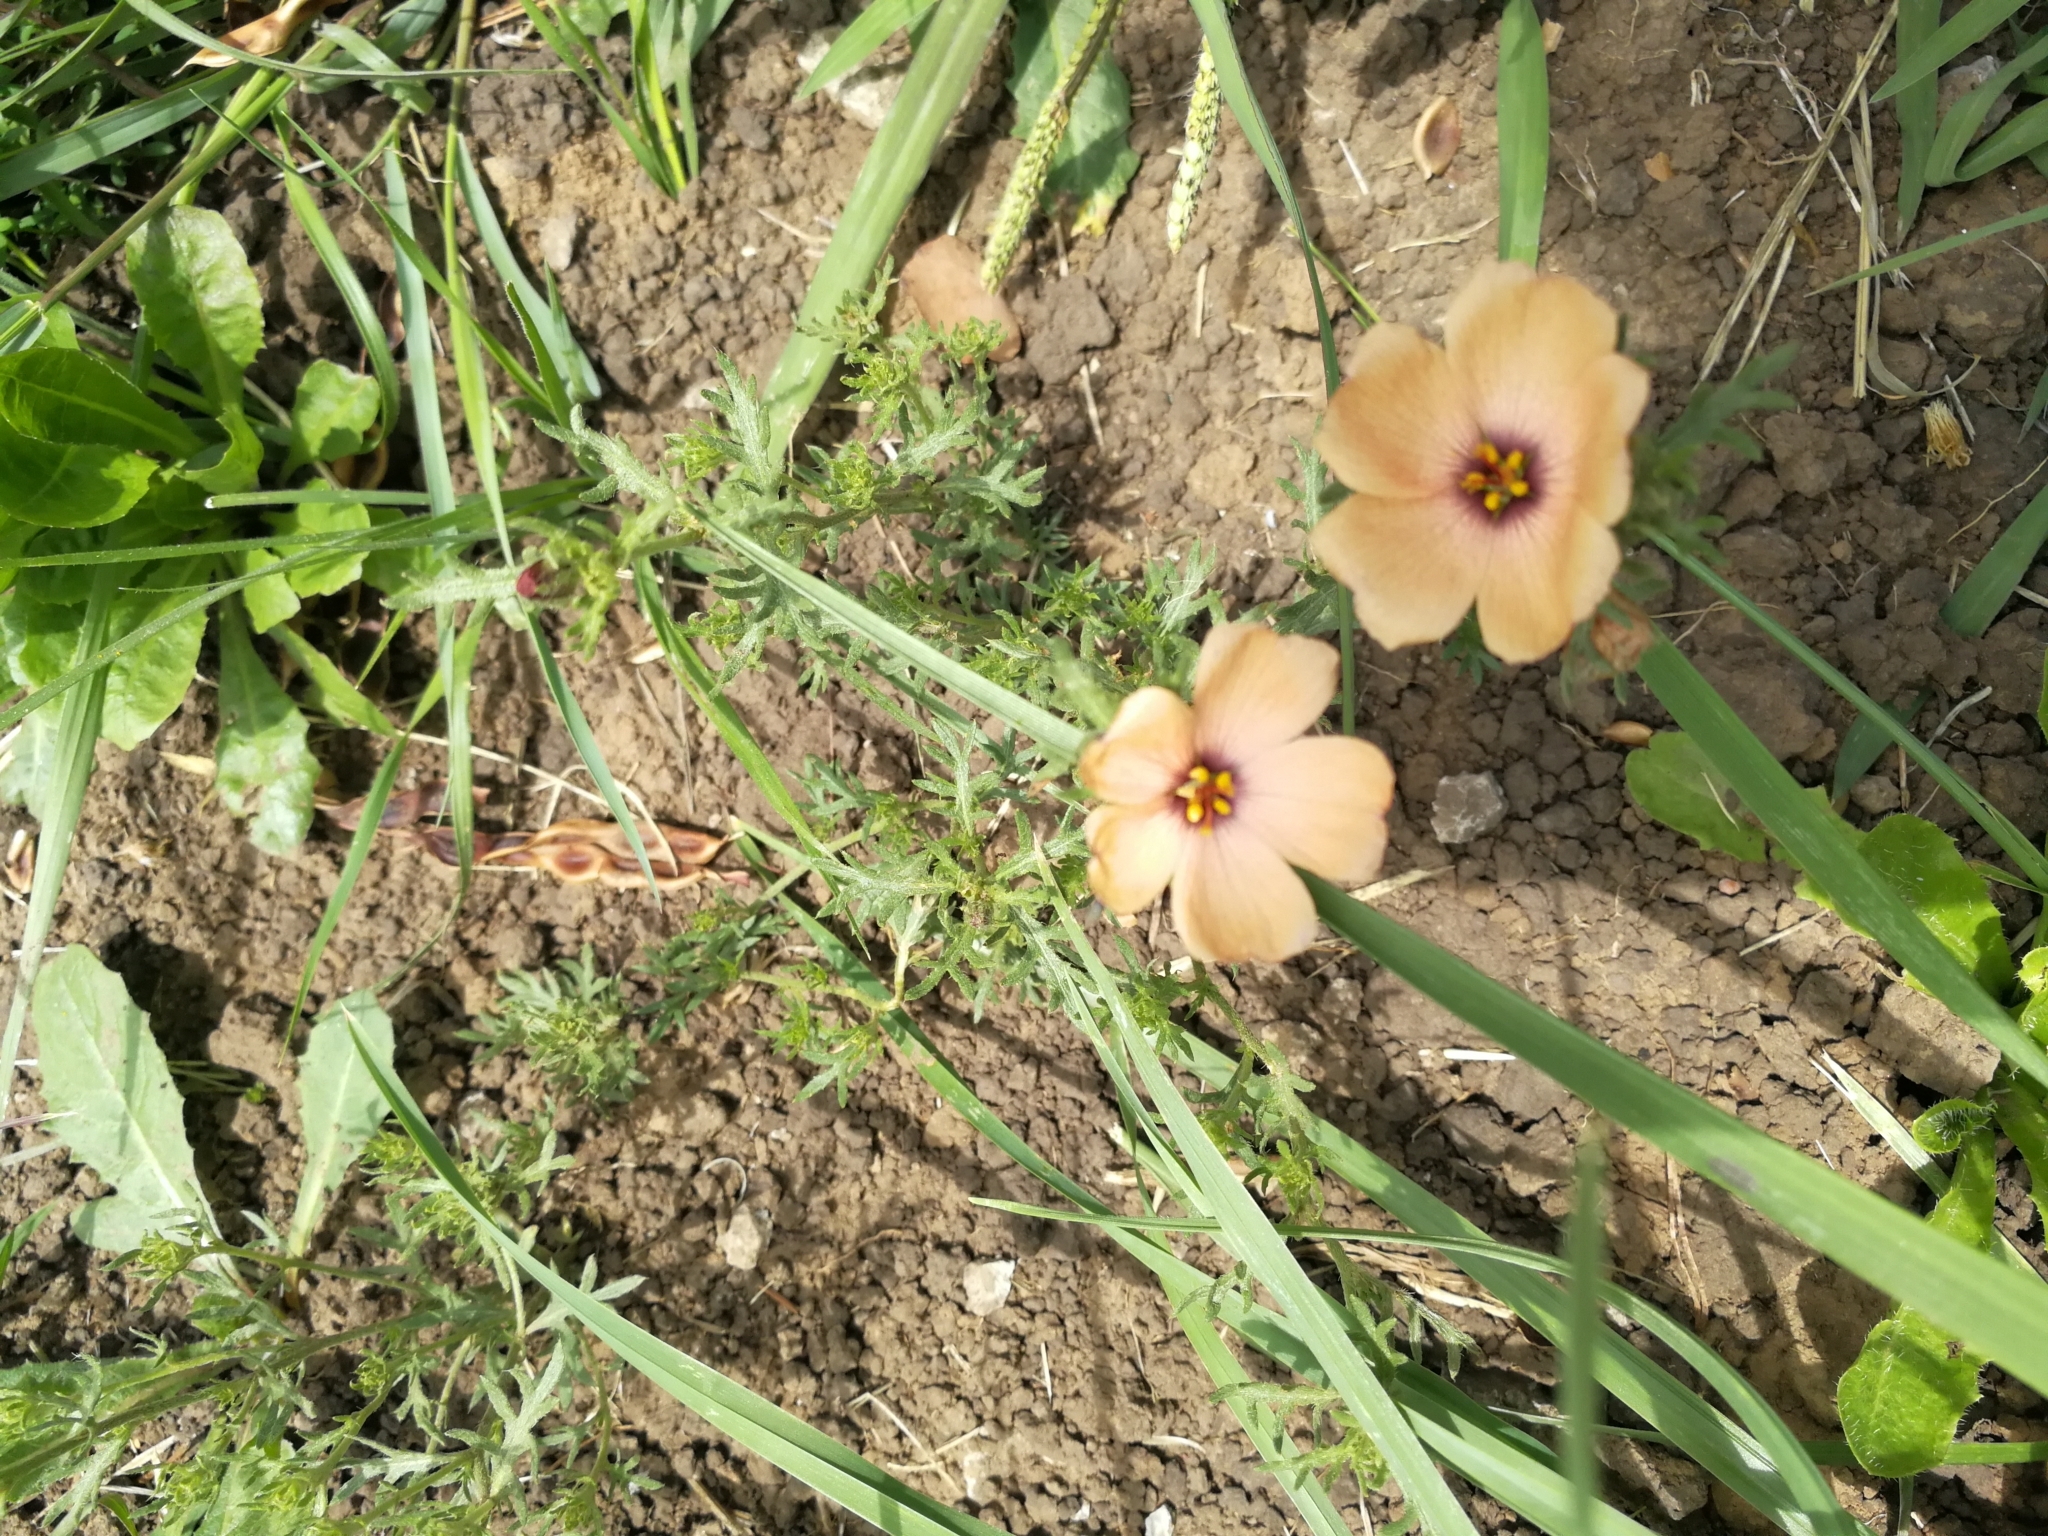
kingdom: Plantae
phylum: Tracheophyta
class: Magnoliopsida
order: Malpighiales
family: Turneraceae
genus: Turnera
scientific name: Turnera sidoides
